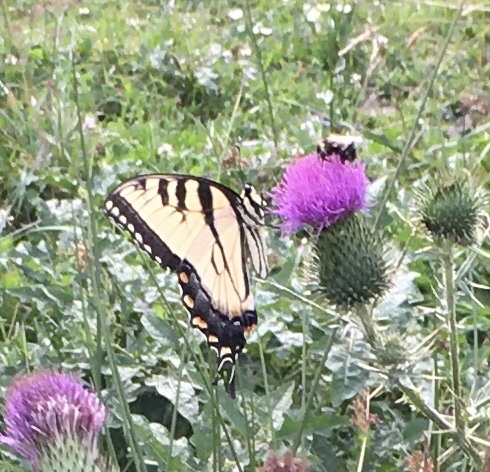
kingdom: Animalia
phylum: Arthropoda
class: Insecta
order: Lepidoptera
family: Papilionidae
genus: Papilio
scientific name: Papilio glaucus
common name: Tiger swallowtail
